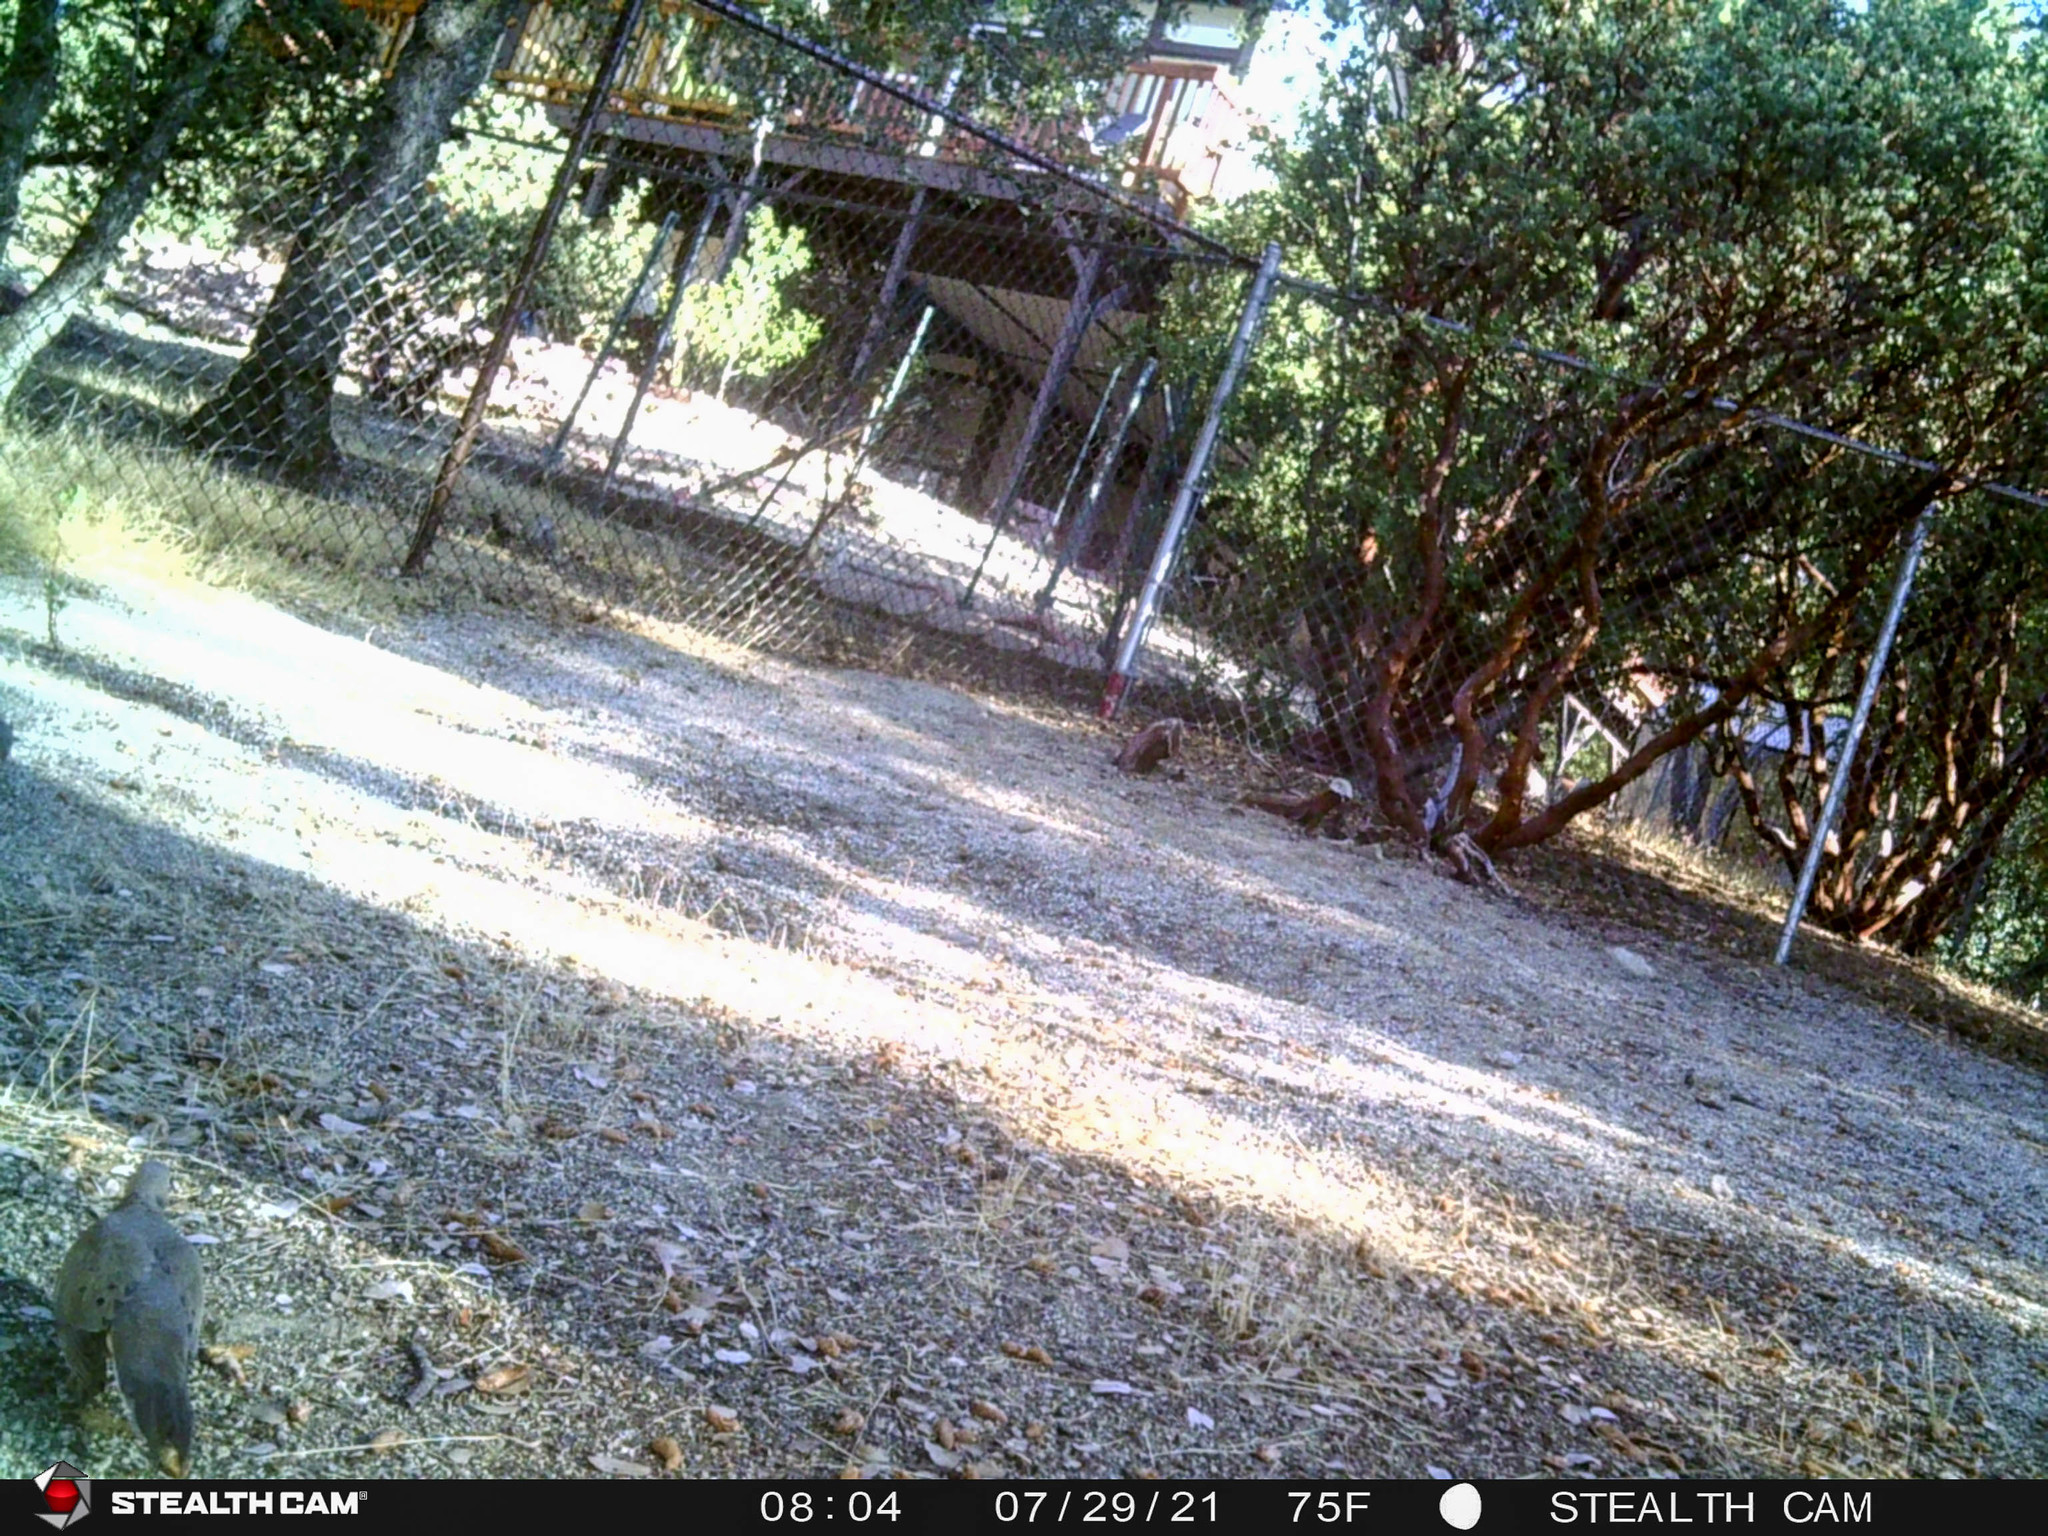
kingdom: Animalia
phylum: Chordata
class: Aves
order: Columbiformes
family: Columbidae
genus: Zenaida
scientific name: Zenaida macroura
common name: Mourning dove
